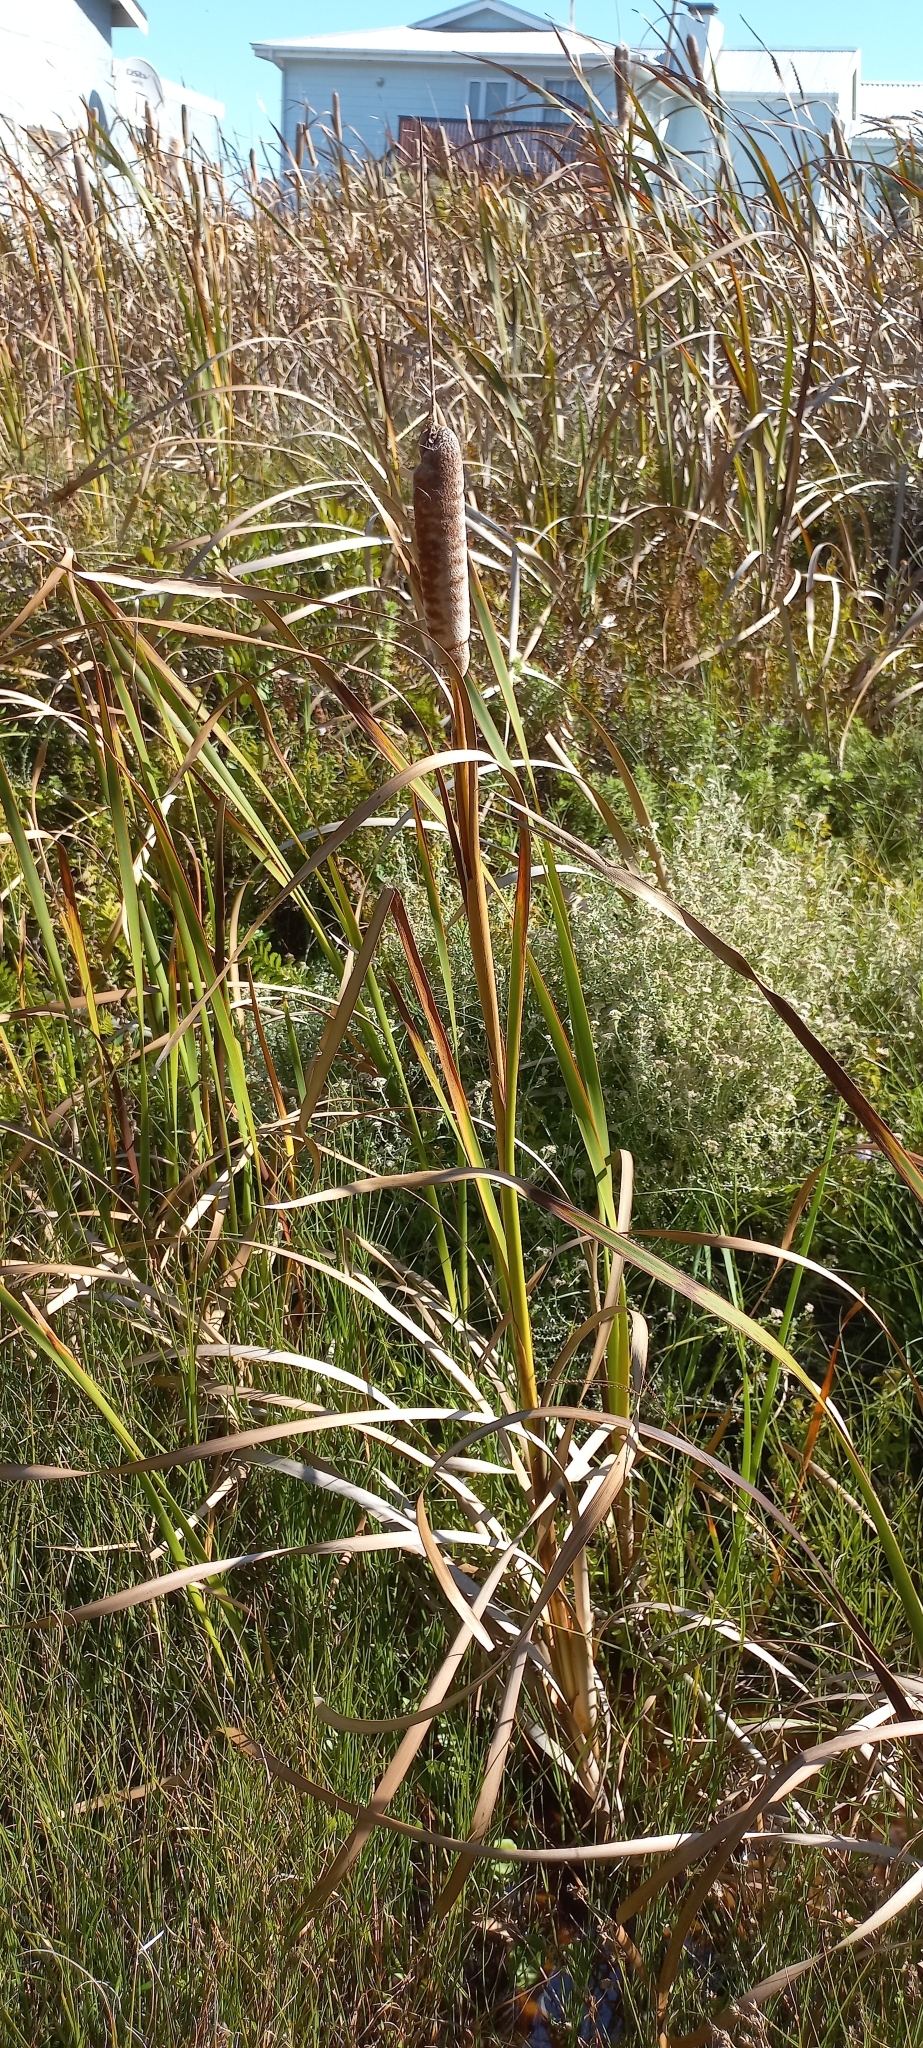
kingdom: Plantae
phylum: Tracheophyta
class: Liliopsida
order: Poales
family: Typhaceae
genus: Typha
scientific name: Typha capensis
